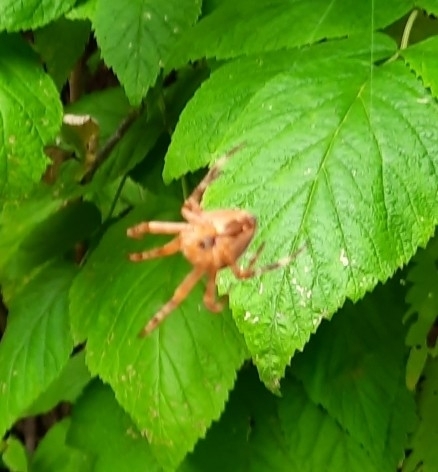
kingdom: Animalia
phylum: Arthropoda
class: Arachnida
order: Araneae
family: Araneidae
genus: Araneus
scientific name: Araneus diadematus
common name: Cross orbweaver
